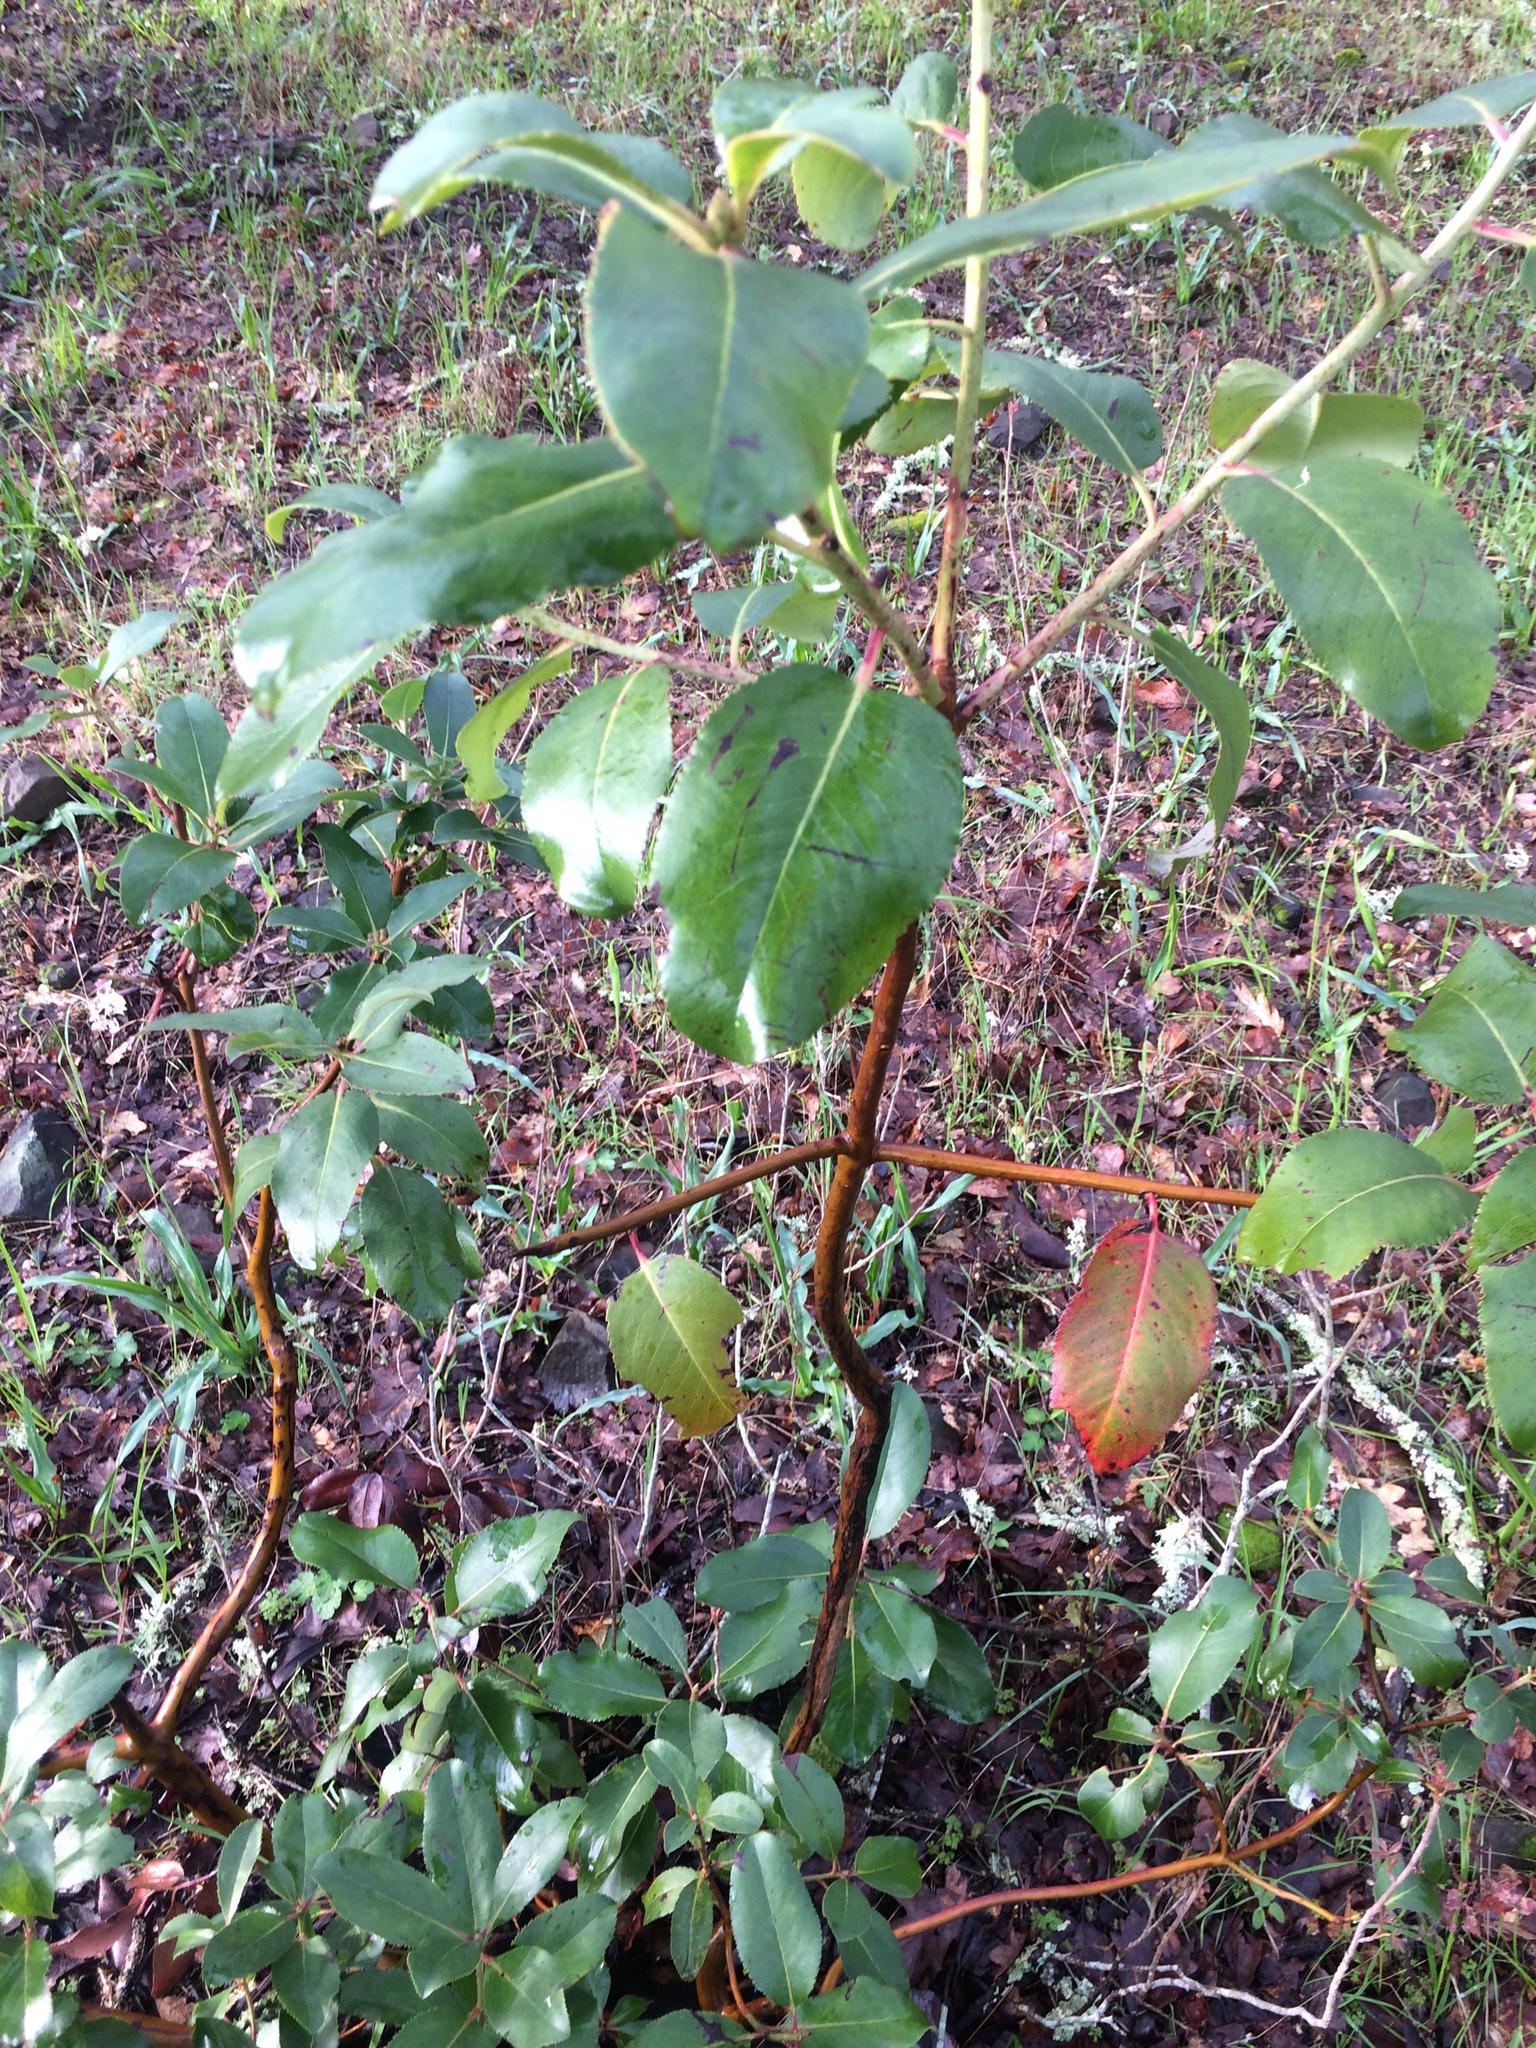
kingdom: Plantae
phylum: Tracheophyta
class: Magnoliopsida
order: Ericales
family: Ericaceae
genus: Arbutus
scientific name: Arbutus menziesii
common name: Pacific madrone
